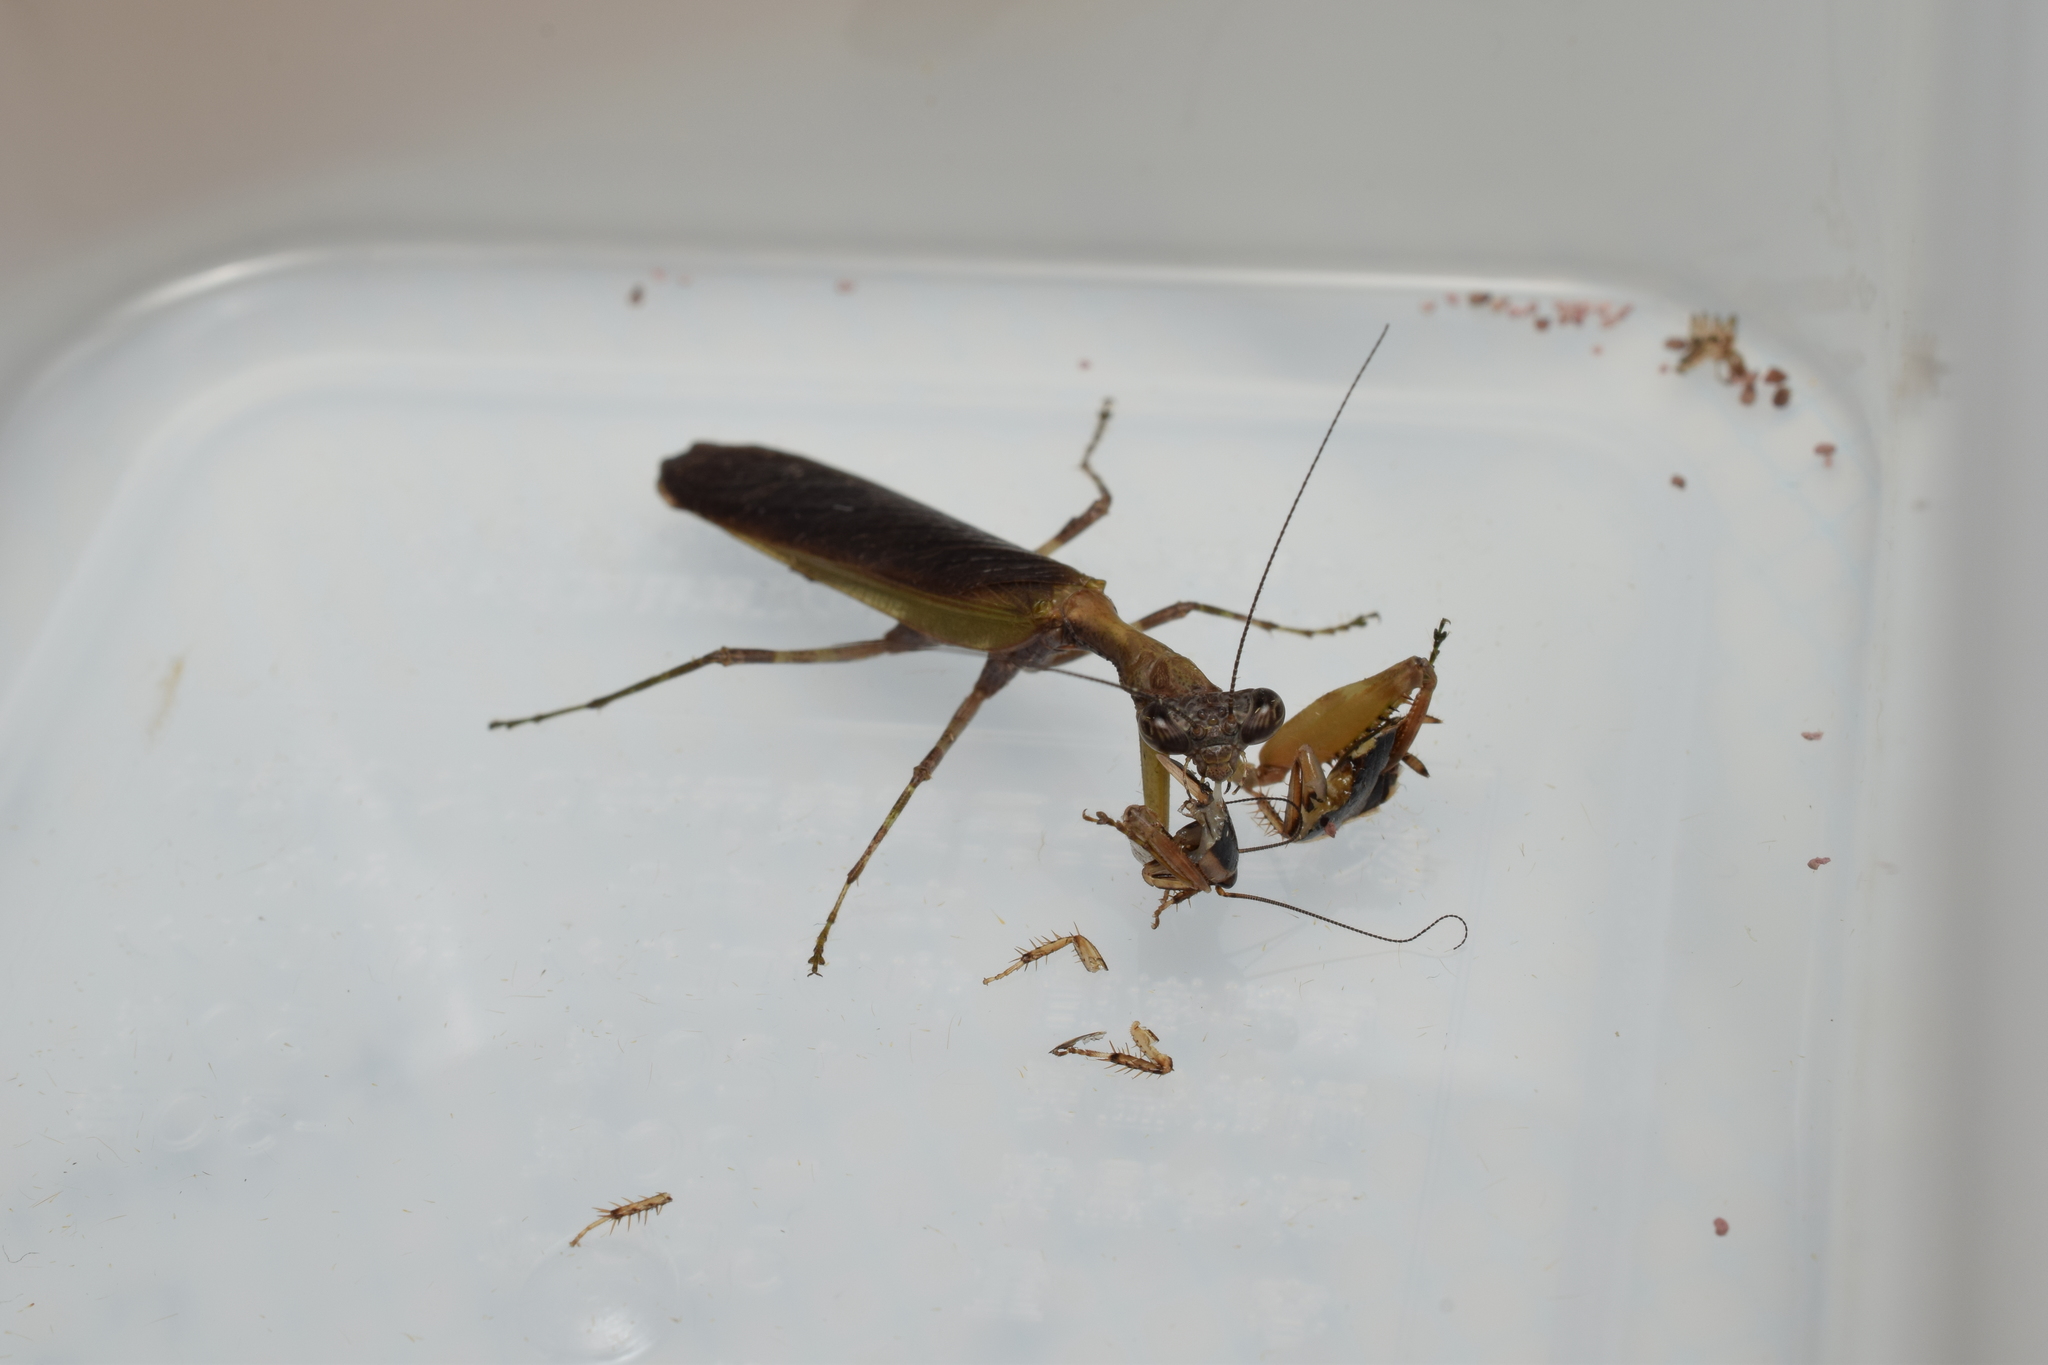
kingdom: Animalia
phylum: Arthropoda
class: Insecta
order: Mantodea
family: Hymenopodidae
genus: Acromantis
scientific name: Acromantis satsumensis
